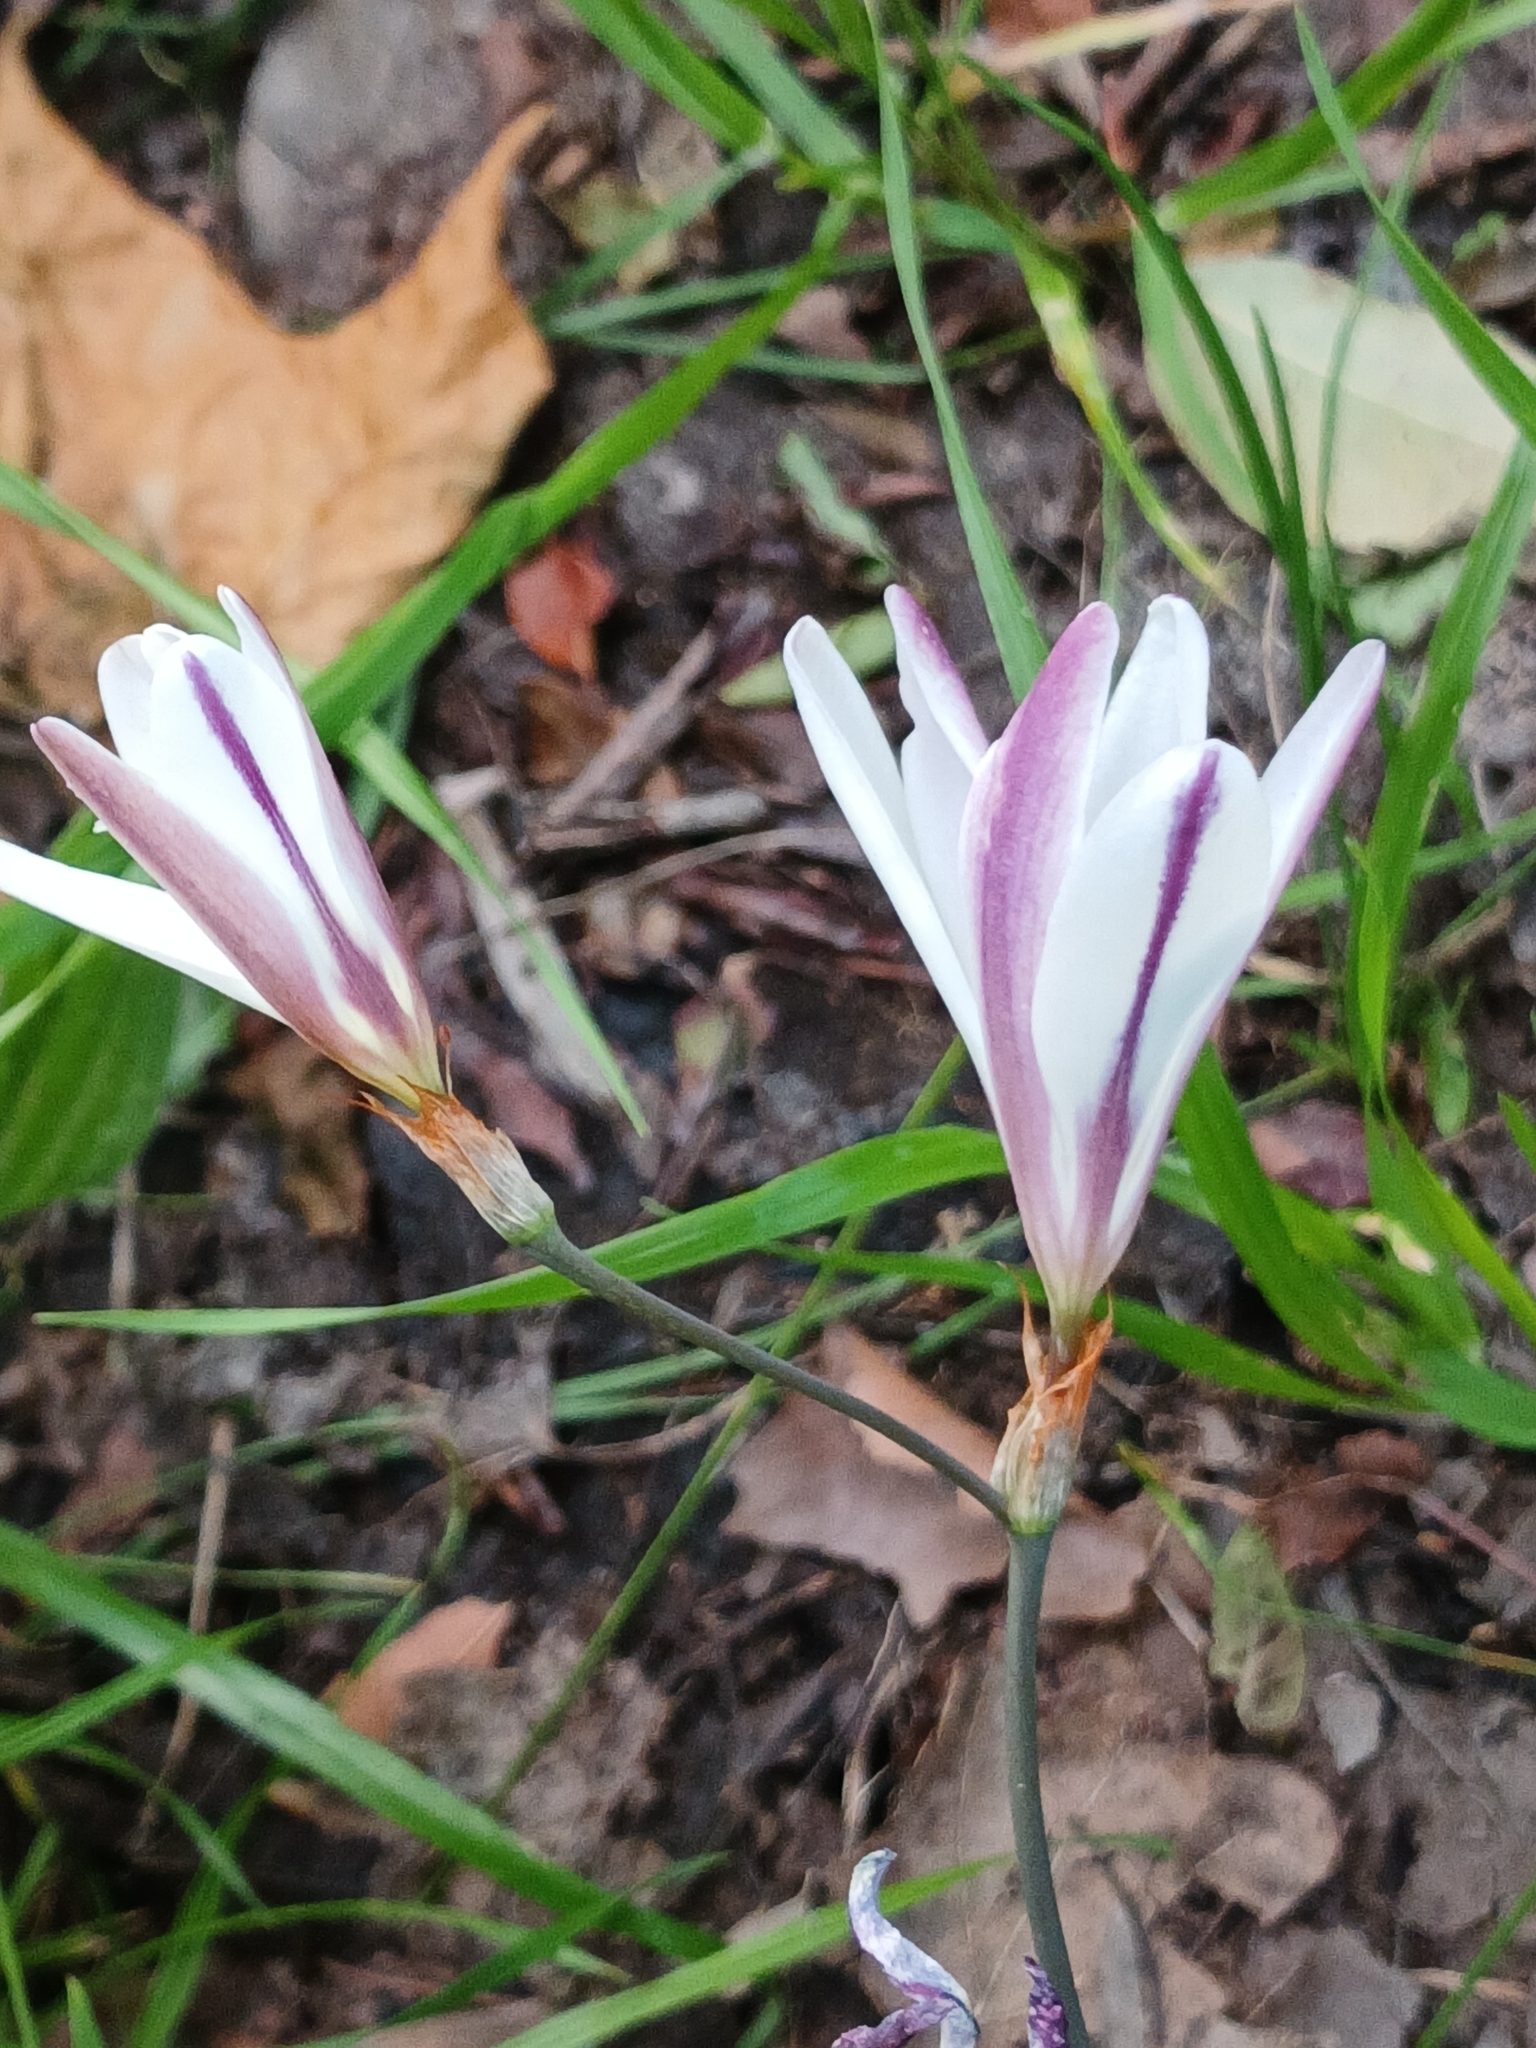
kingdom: Plantae
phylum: Tracheophyta
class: Liliopsida
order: Asparagales
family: Iridaceae
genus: Sparaxis
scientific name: Sparaxis bulbifera
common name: Harlequin-flower
